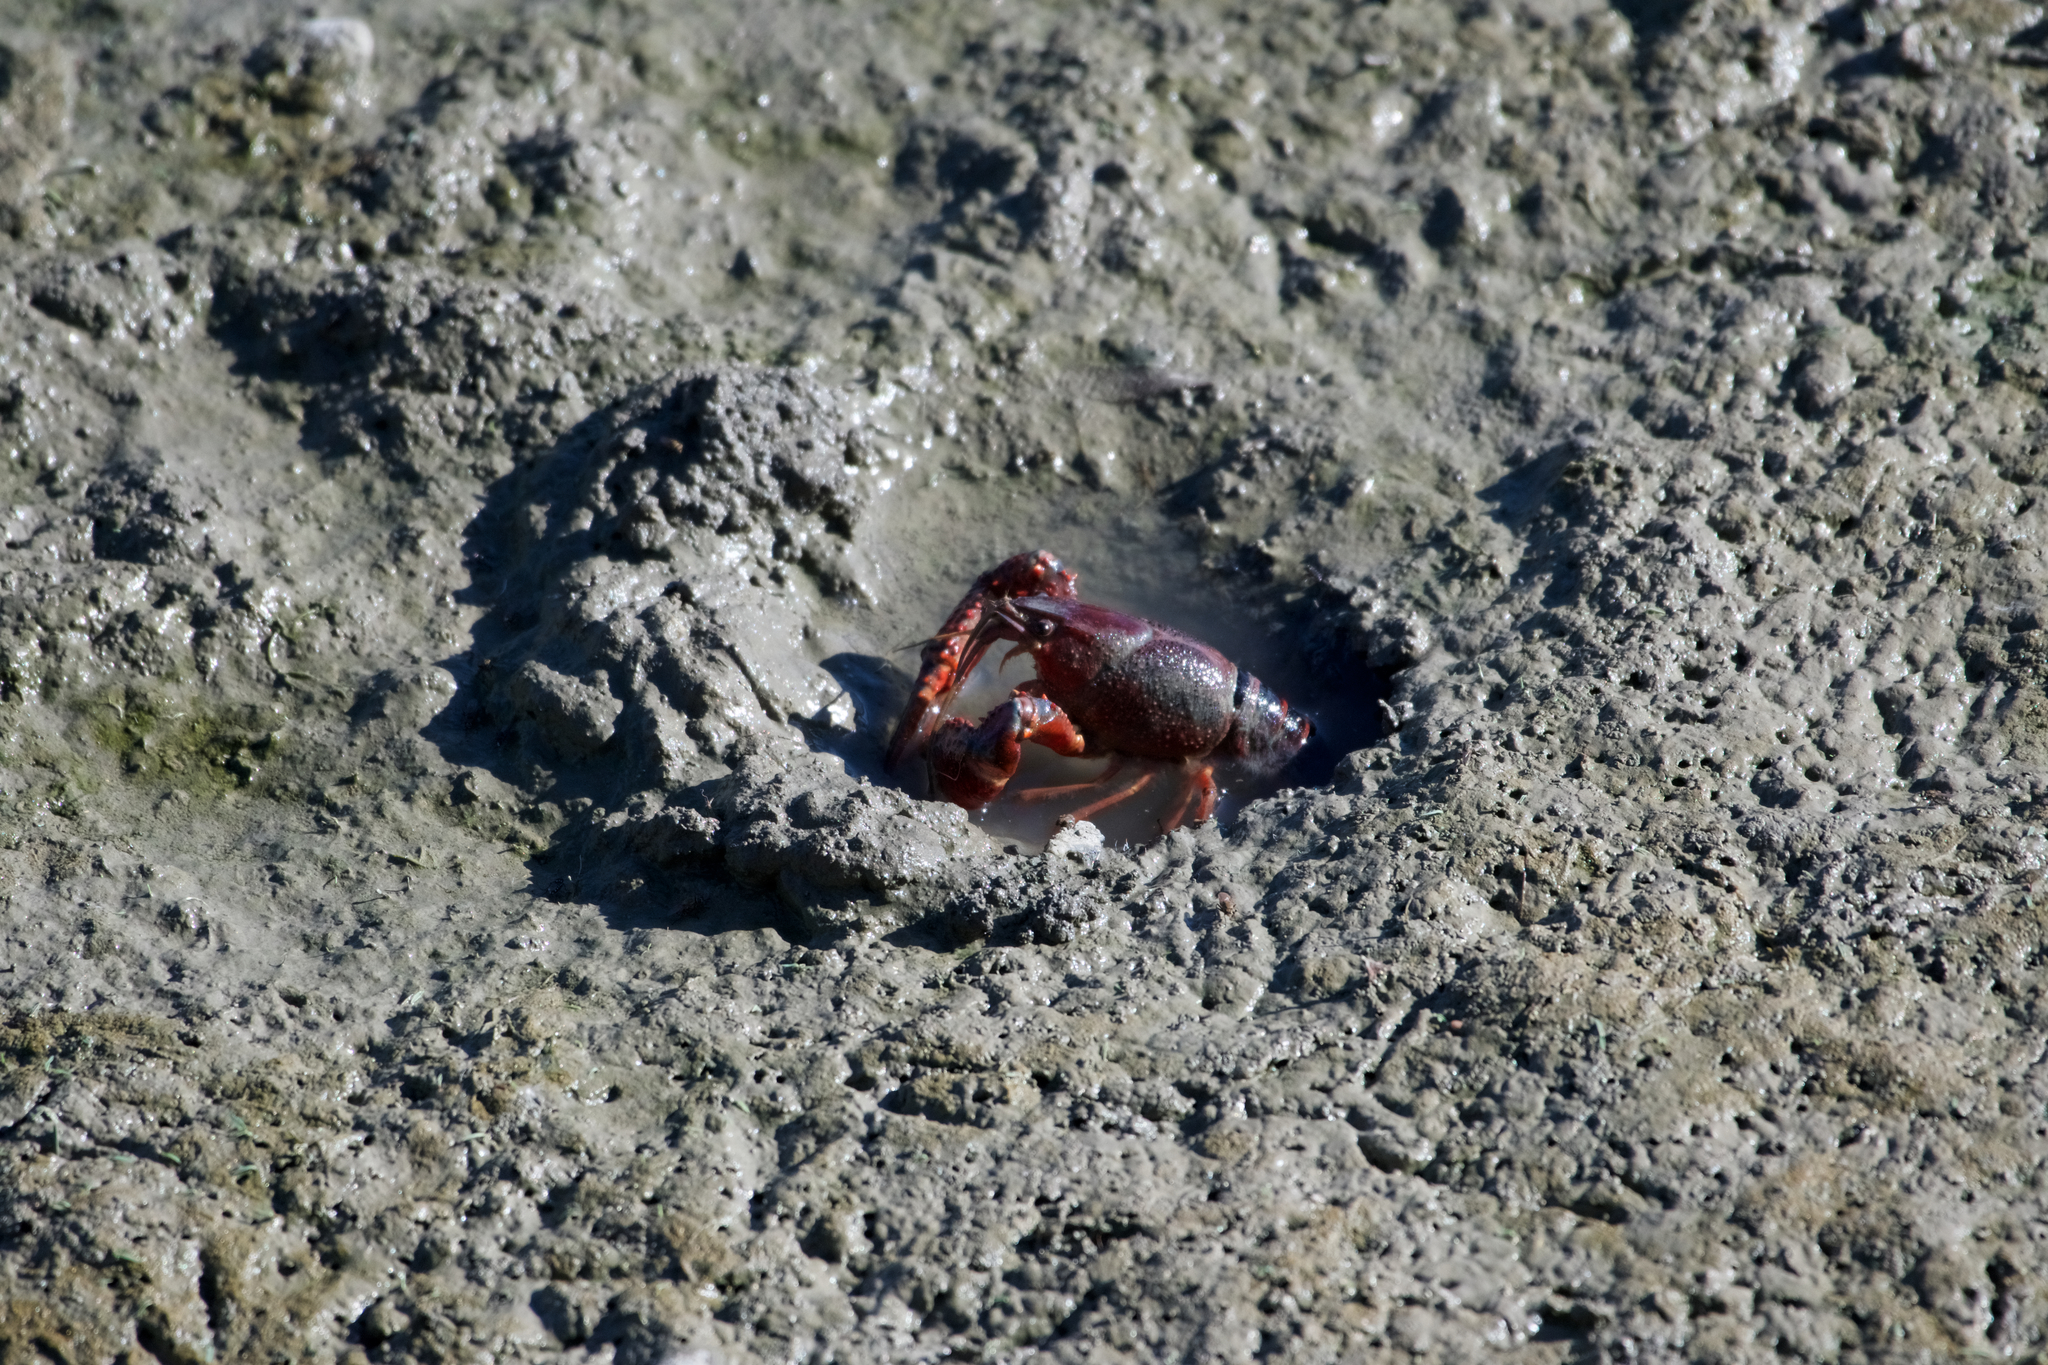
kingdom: Animalia
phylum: Arthropoda
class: Malacostraca
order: Decapoda
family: Cambaridae
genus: Procambarus
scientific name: Procambarus clarkii
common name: Red swamp crayfish
